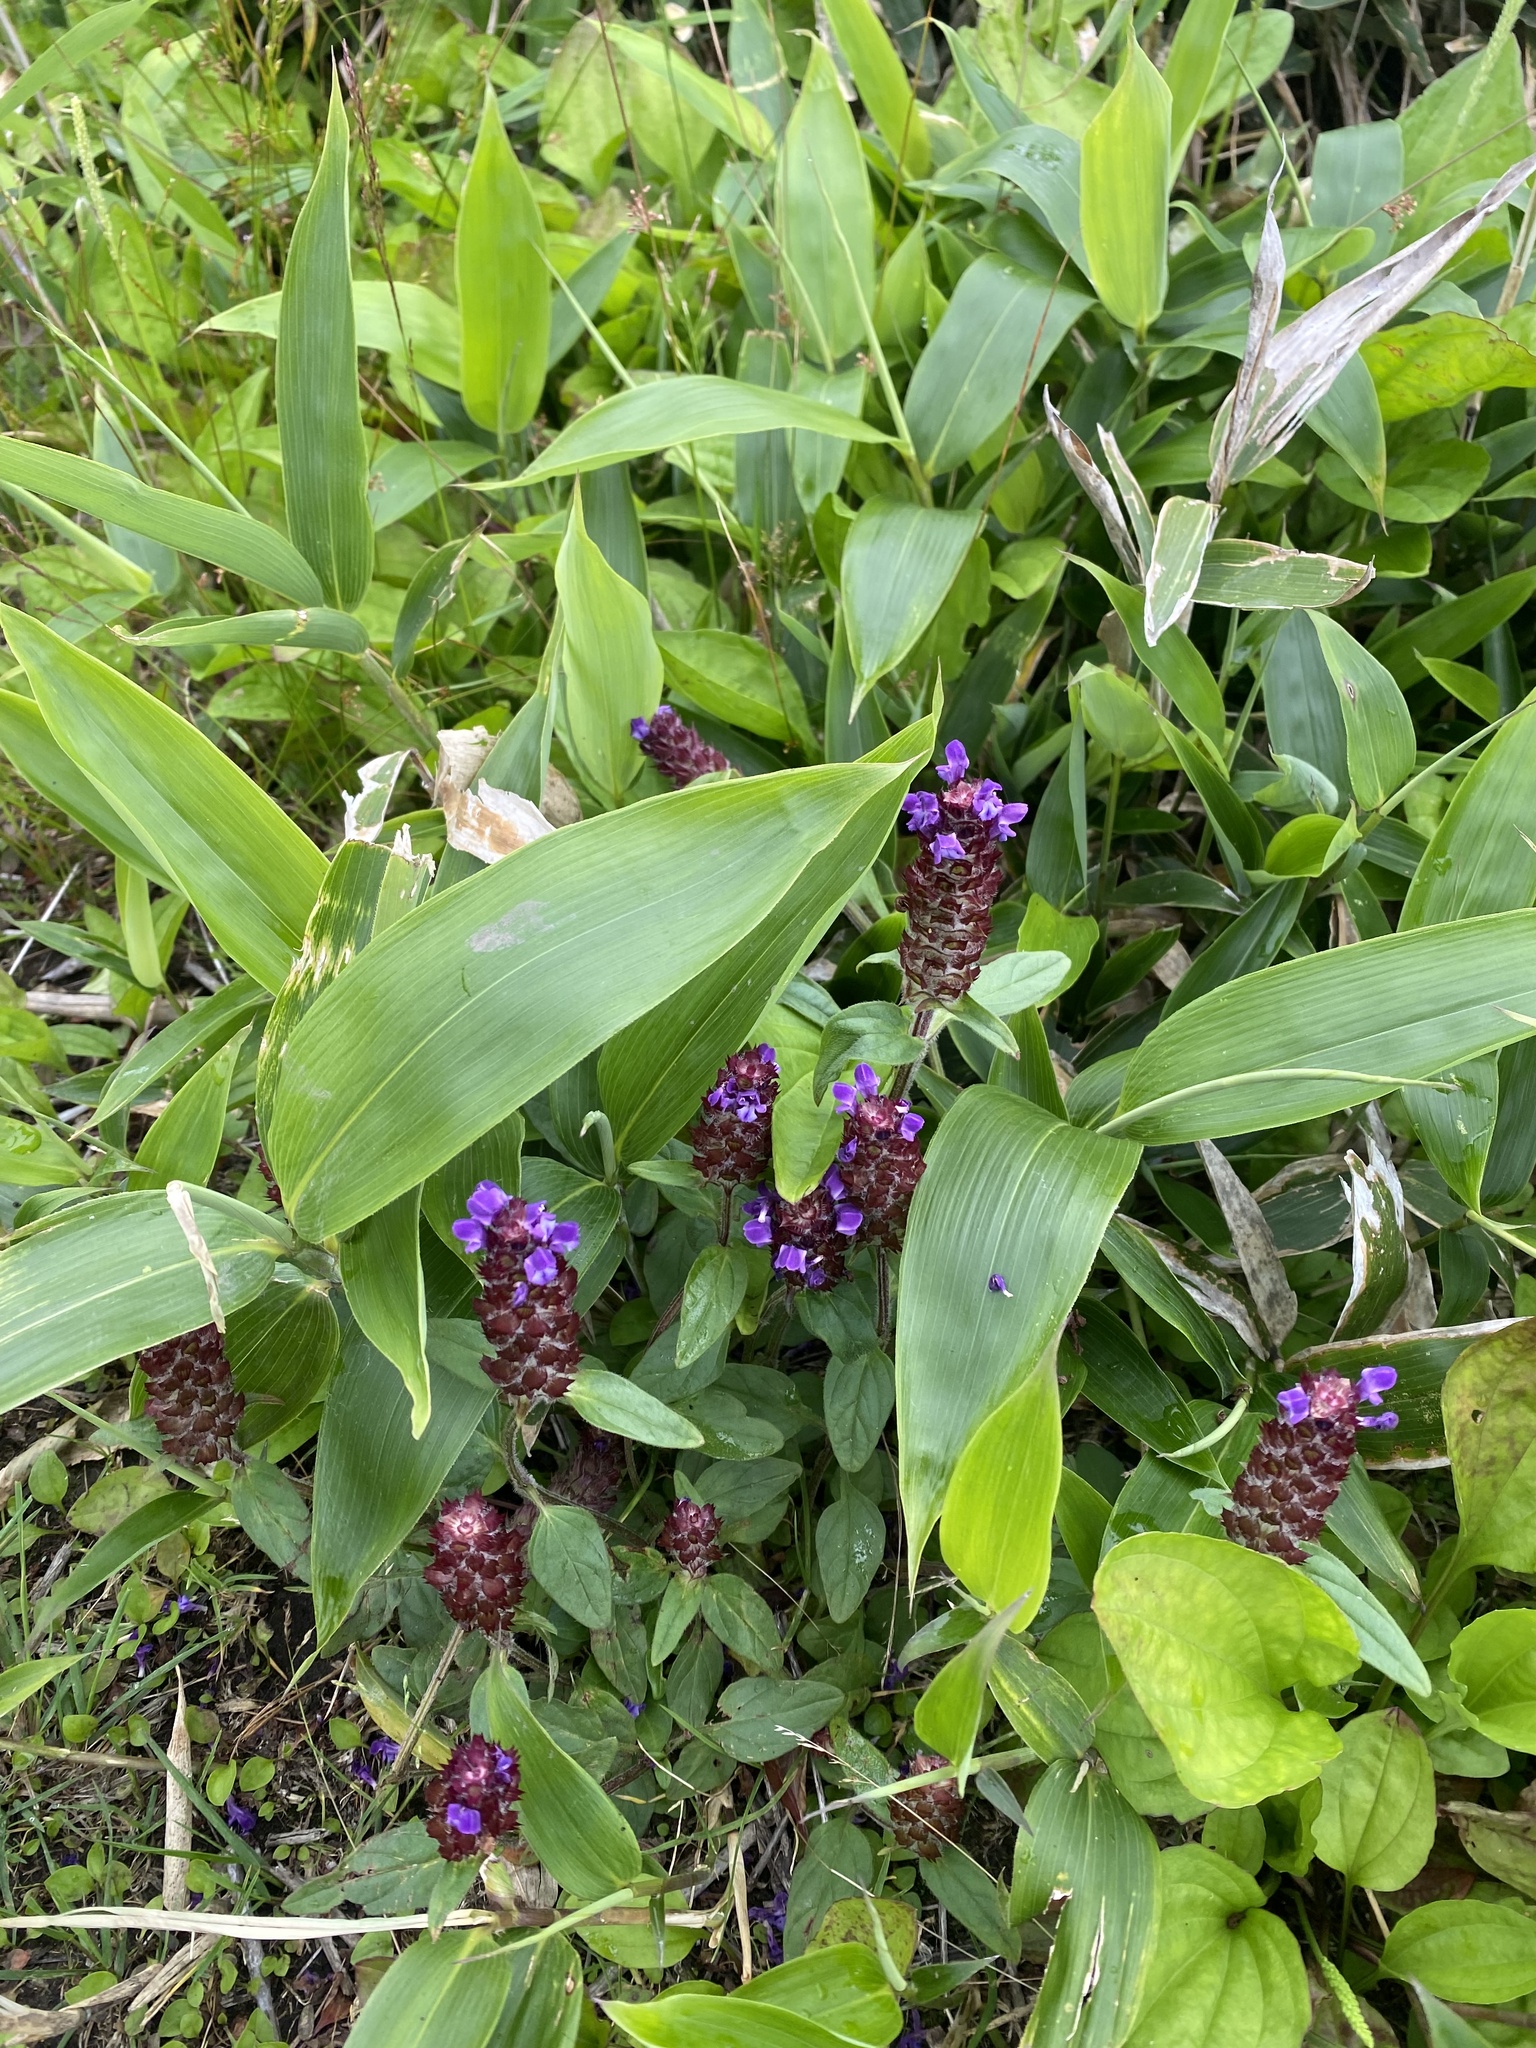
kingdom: Plantae
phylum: Tracheophyta
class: Magnoliopsida
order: Lamiales
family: Lamiaceae
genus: Prunella
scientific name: Prunella vulgaris
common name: Heal-all
